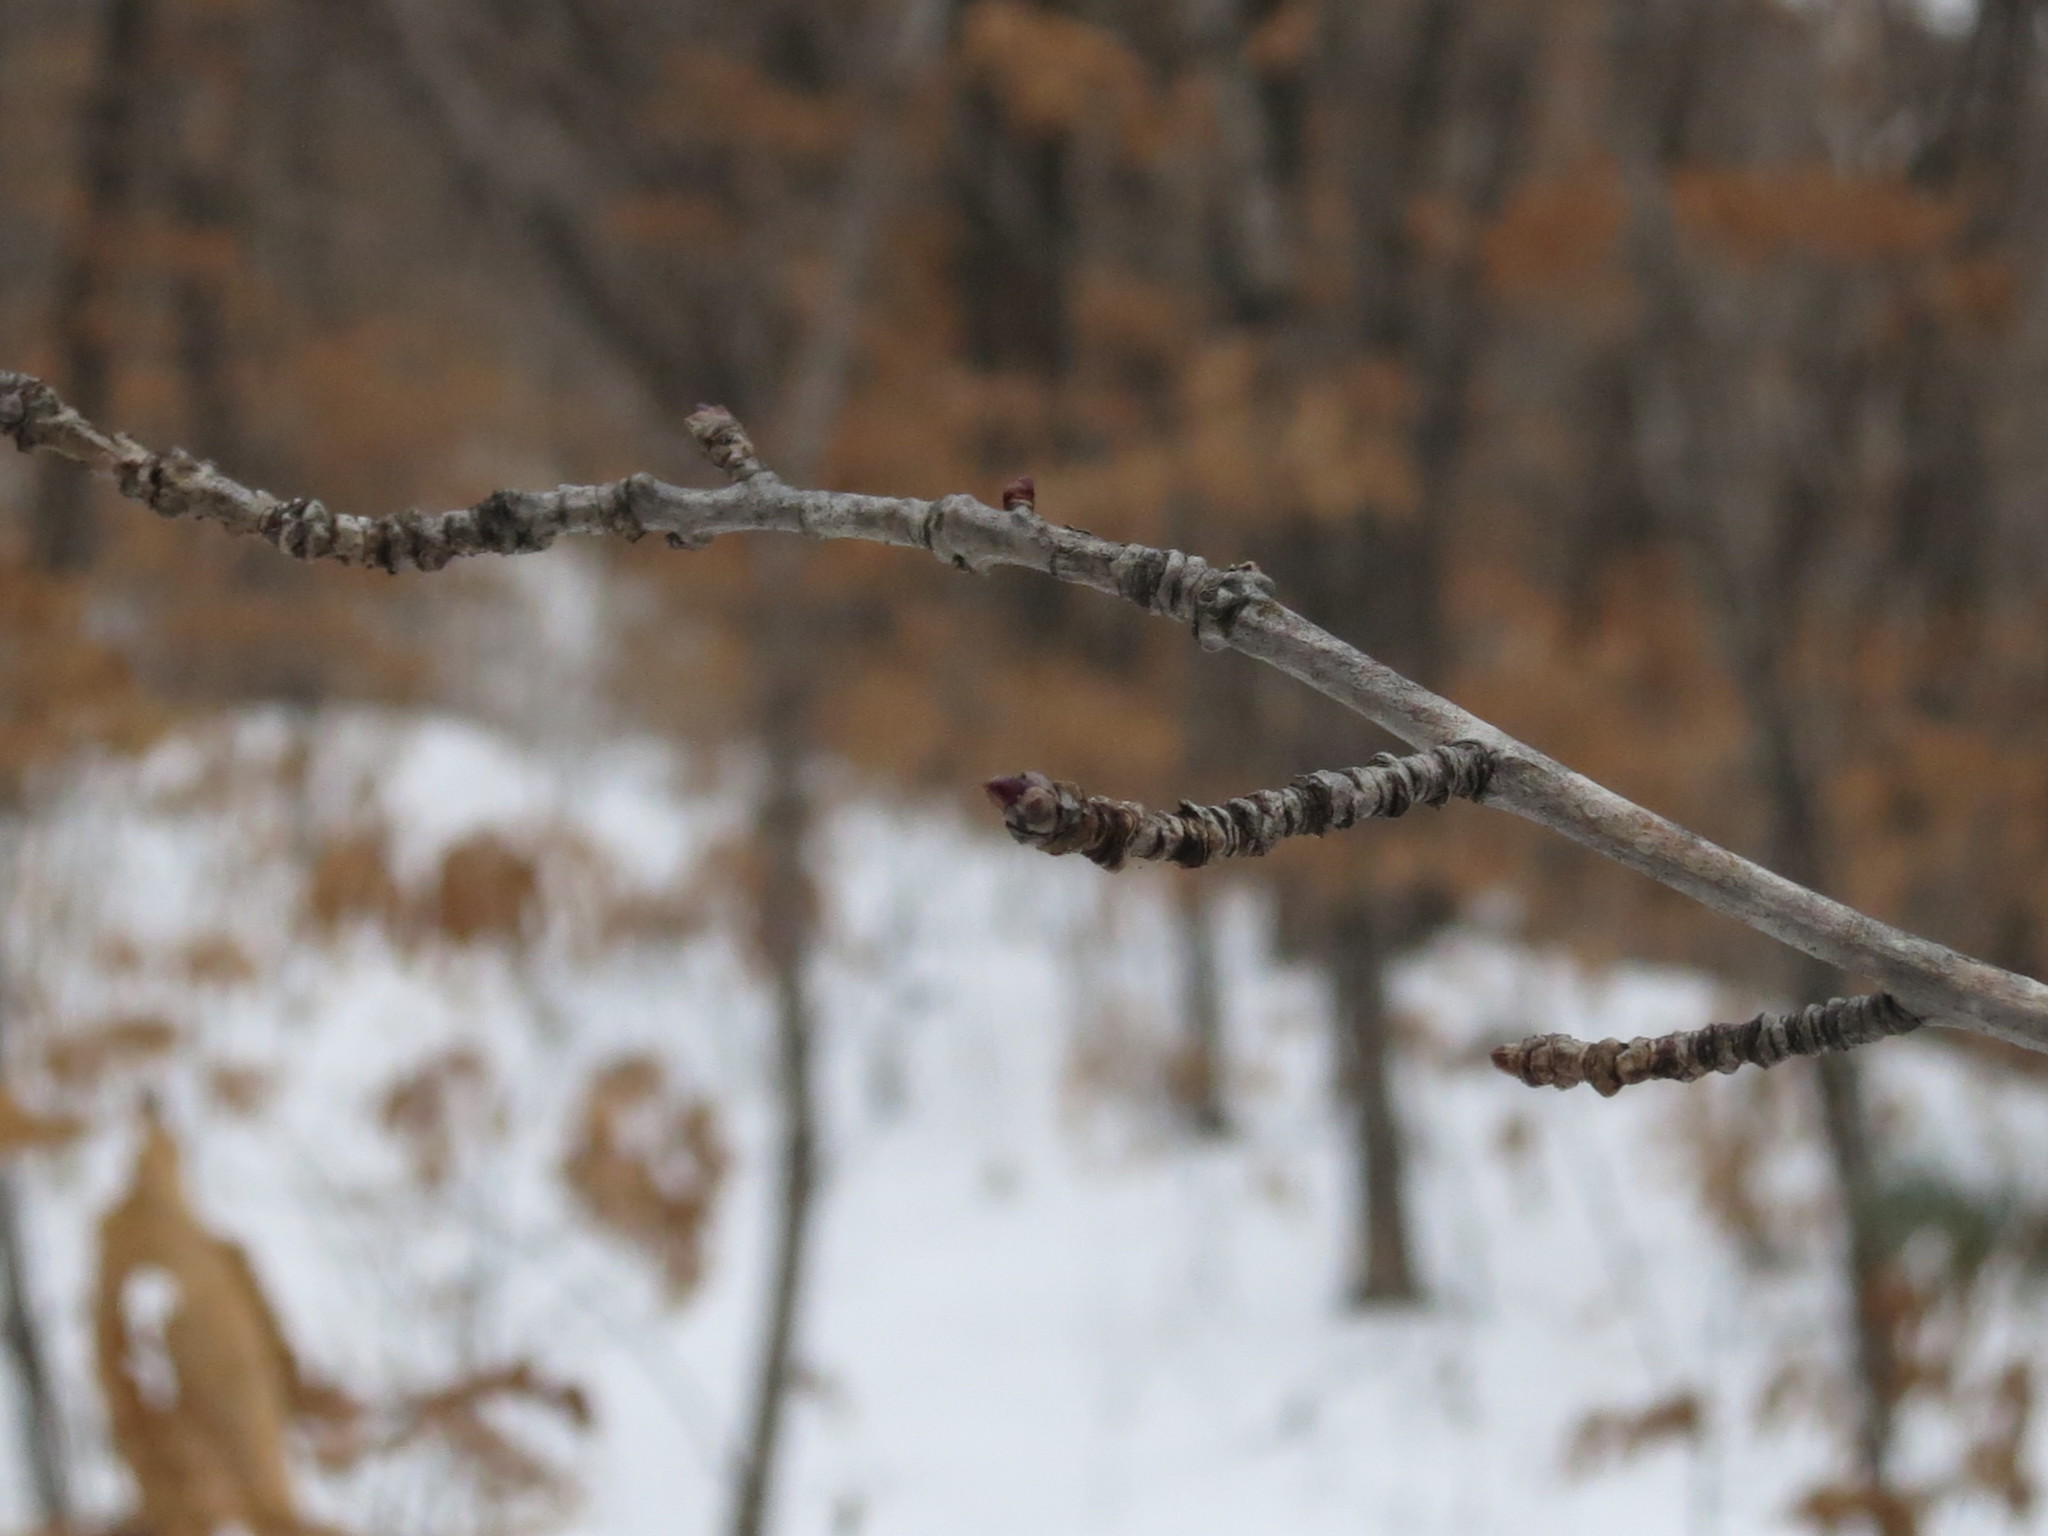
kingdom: Plantae
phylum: Tracheophyta
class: Magnoliopsida
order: Malpighiales
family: Salicaceae
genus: Populus
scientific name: Populus tremula
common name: European aspen
